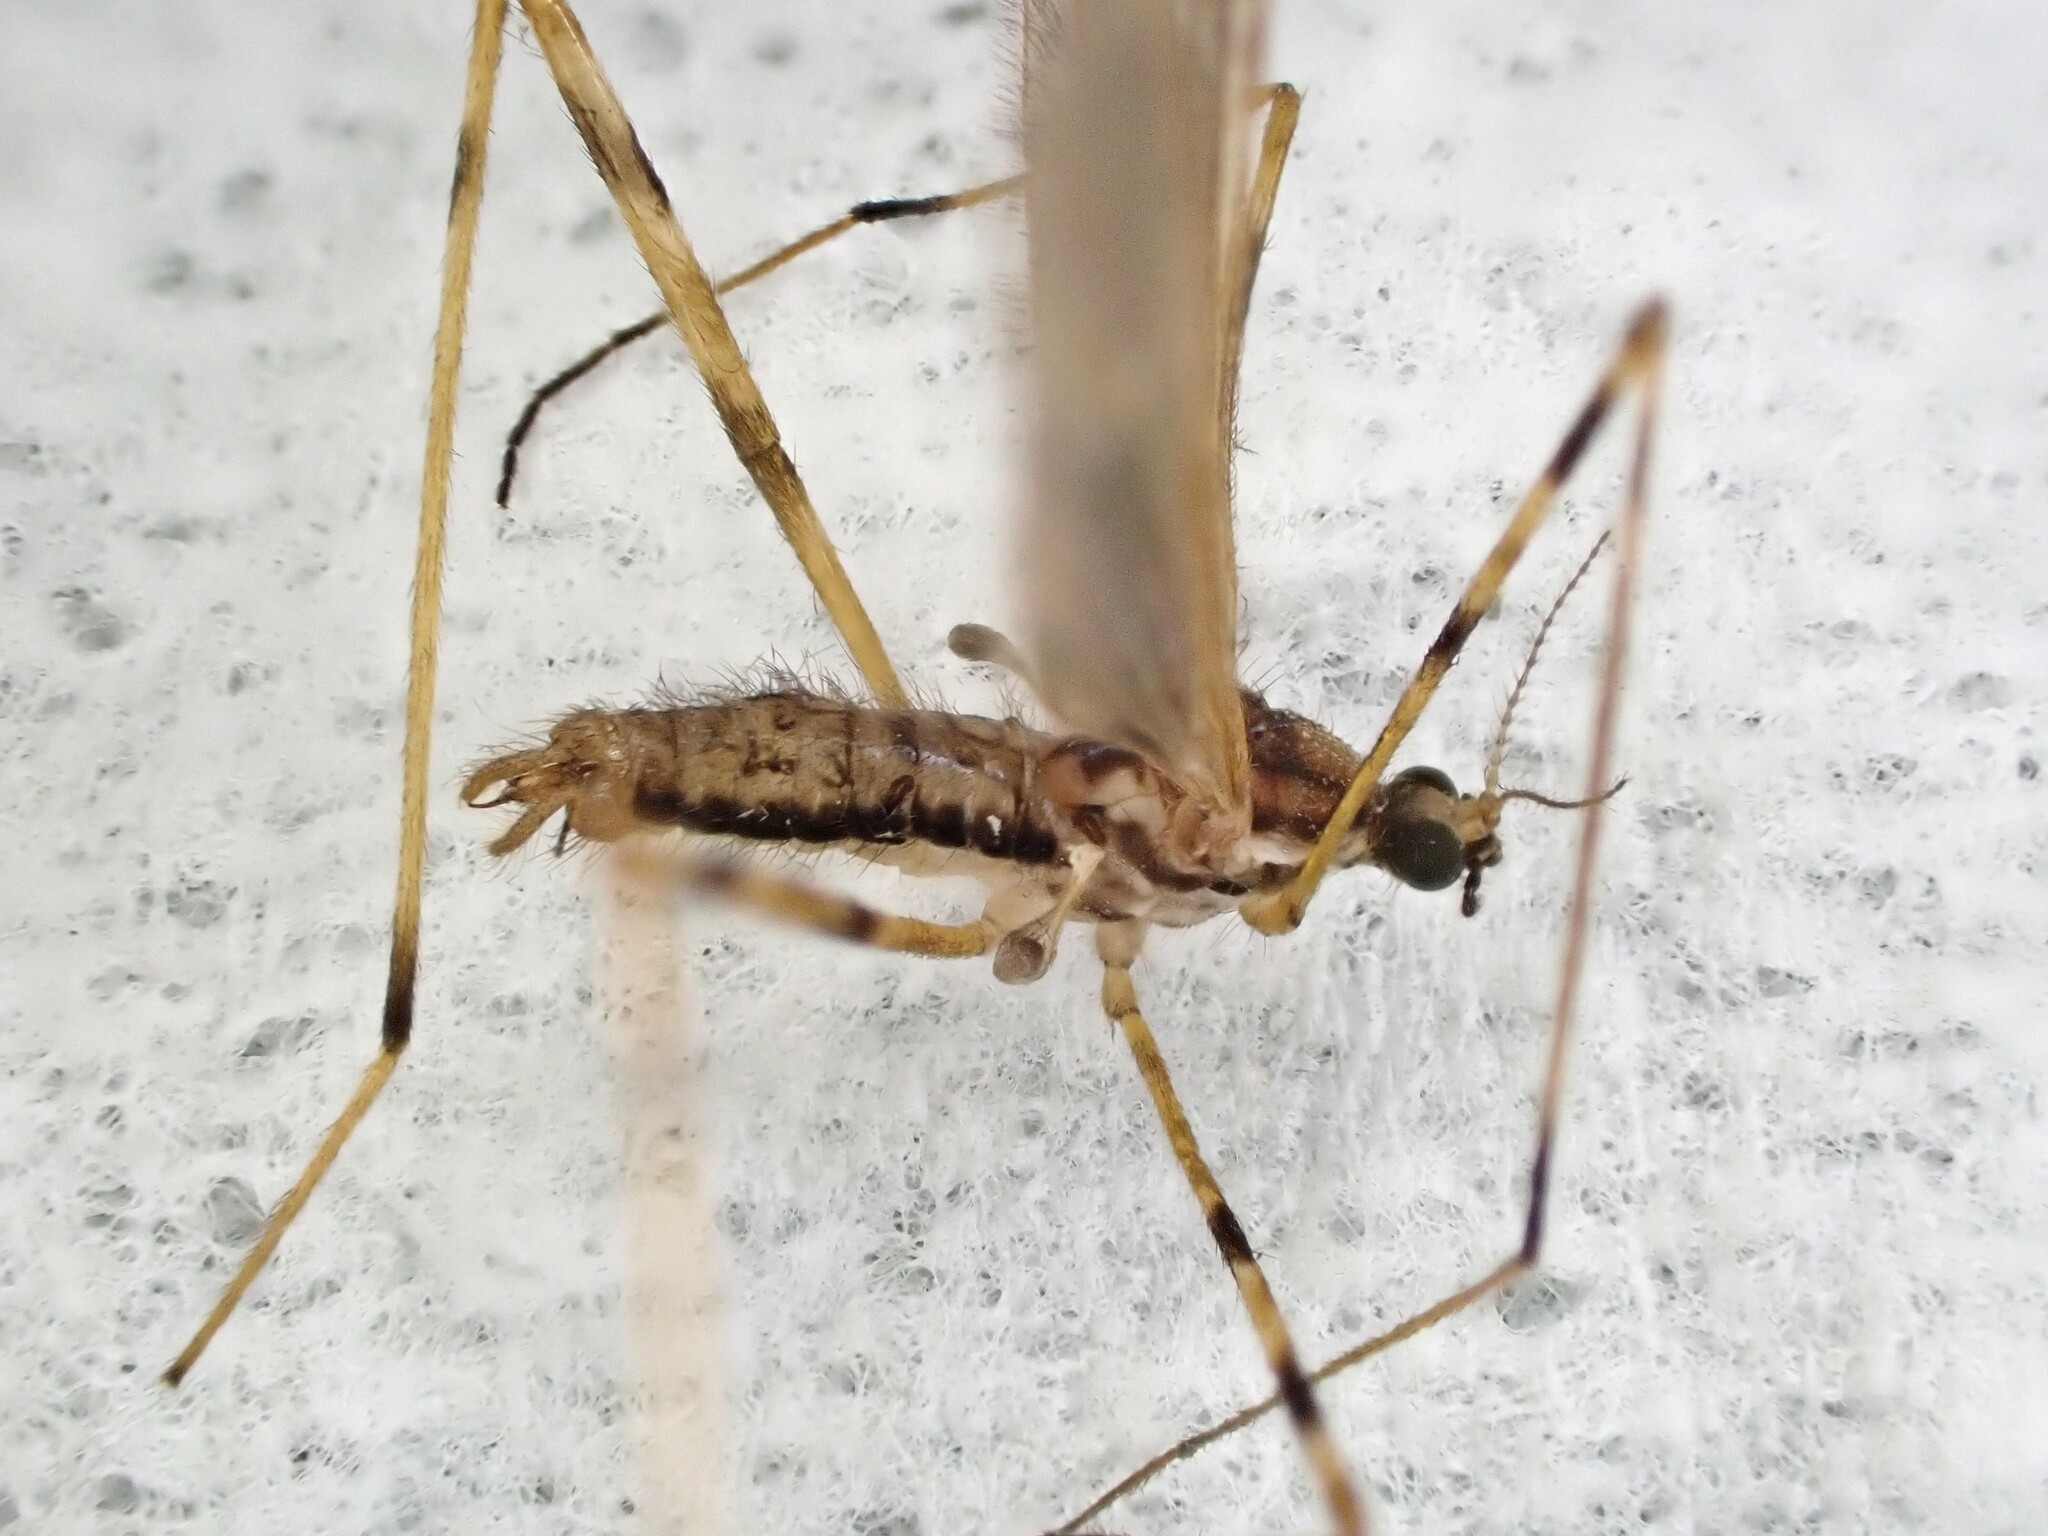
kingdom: Animalia
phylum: Arthropoda
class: Insecta
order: Diptera
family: Limoniidae
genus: Amphineurus
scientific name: Amphineurus hudsoni
